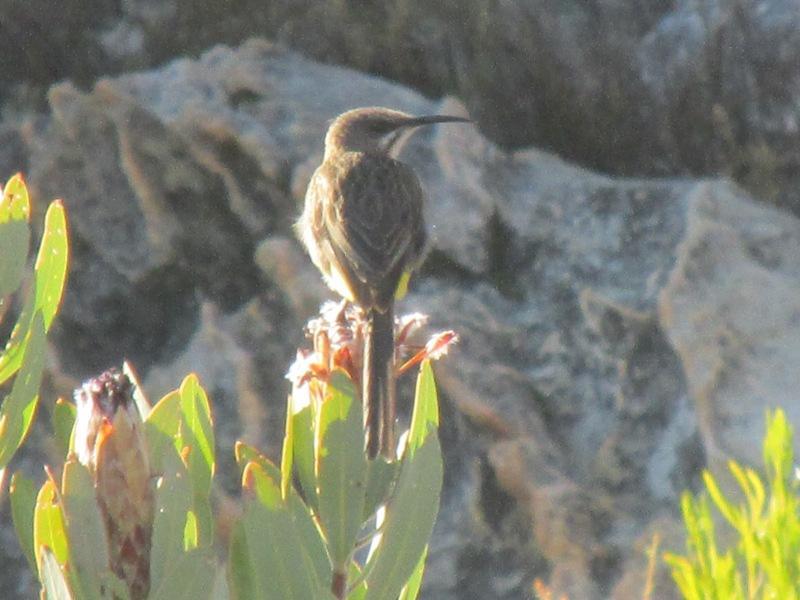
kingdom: Animalia
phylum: Chordata
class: Aves
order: Passeriformes
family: Promeropidae
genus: Promerops
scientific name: Promerops cafer
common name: Cape sugarbird
